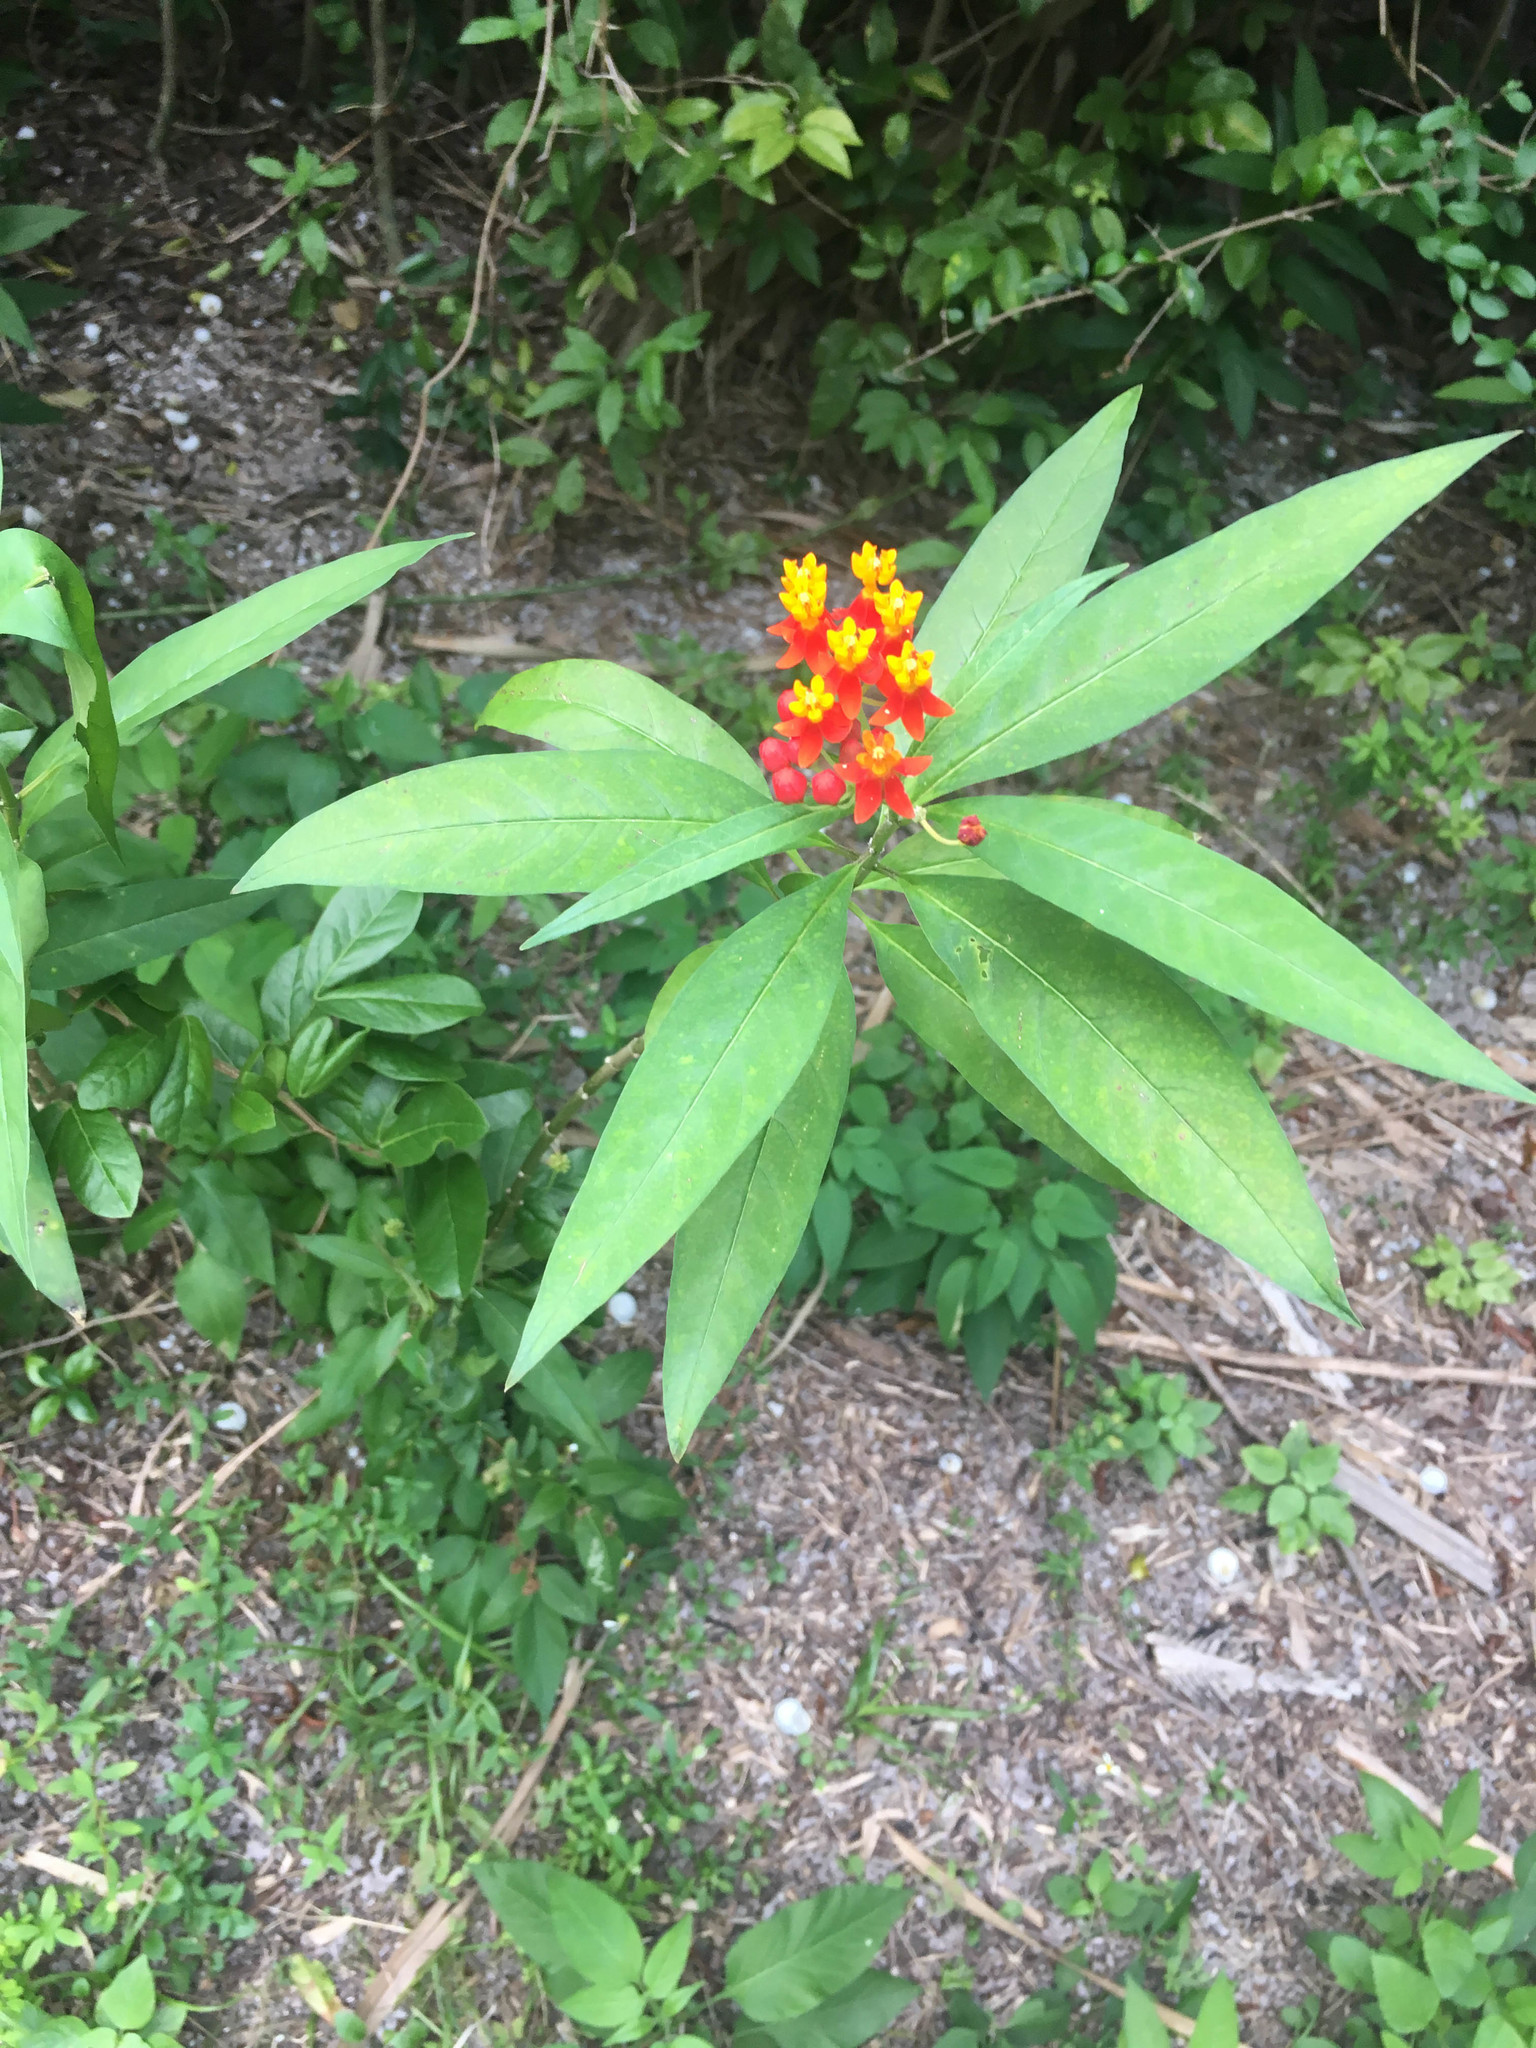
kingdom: Plantae
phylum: Tracheophyta
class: Magnoliopsida
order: Gentianales
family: Apocynaceae
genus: Asclepias
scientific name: Asclepias curassavica
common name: Bloodflower
